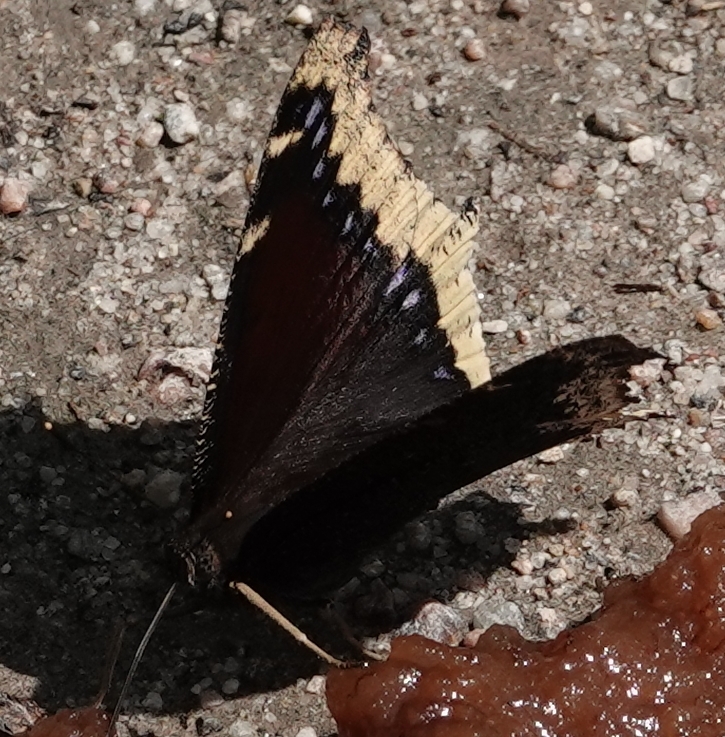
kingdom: Animalia
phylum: Arthropoda
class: Insecta
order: Lepidoptera
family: Nymphalidae
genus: Nymphalis
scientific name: Nymphalis antiopa
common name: Camberwell beauty
